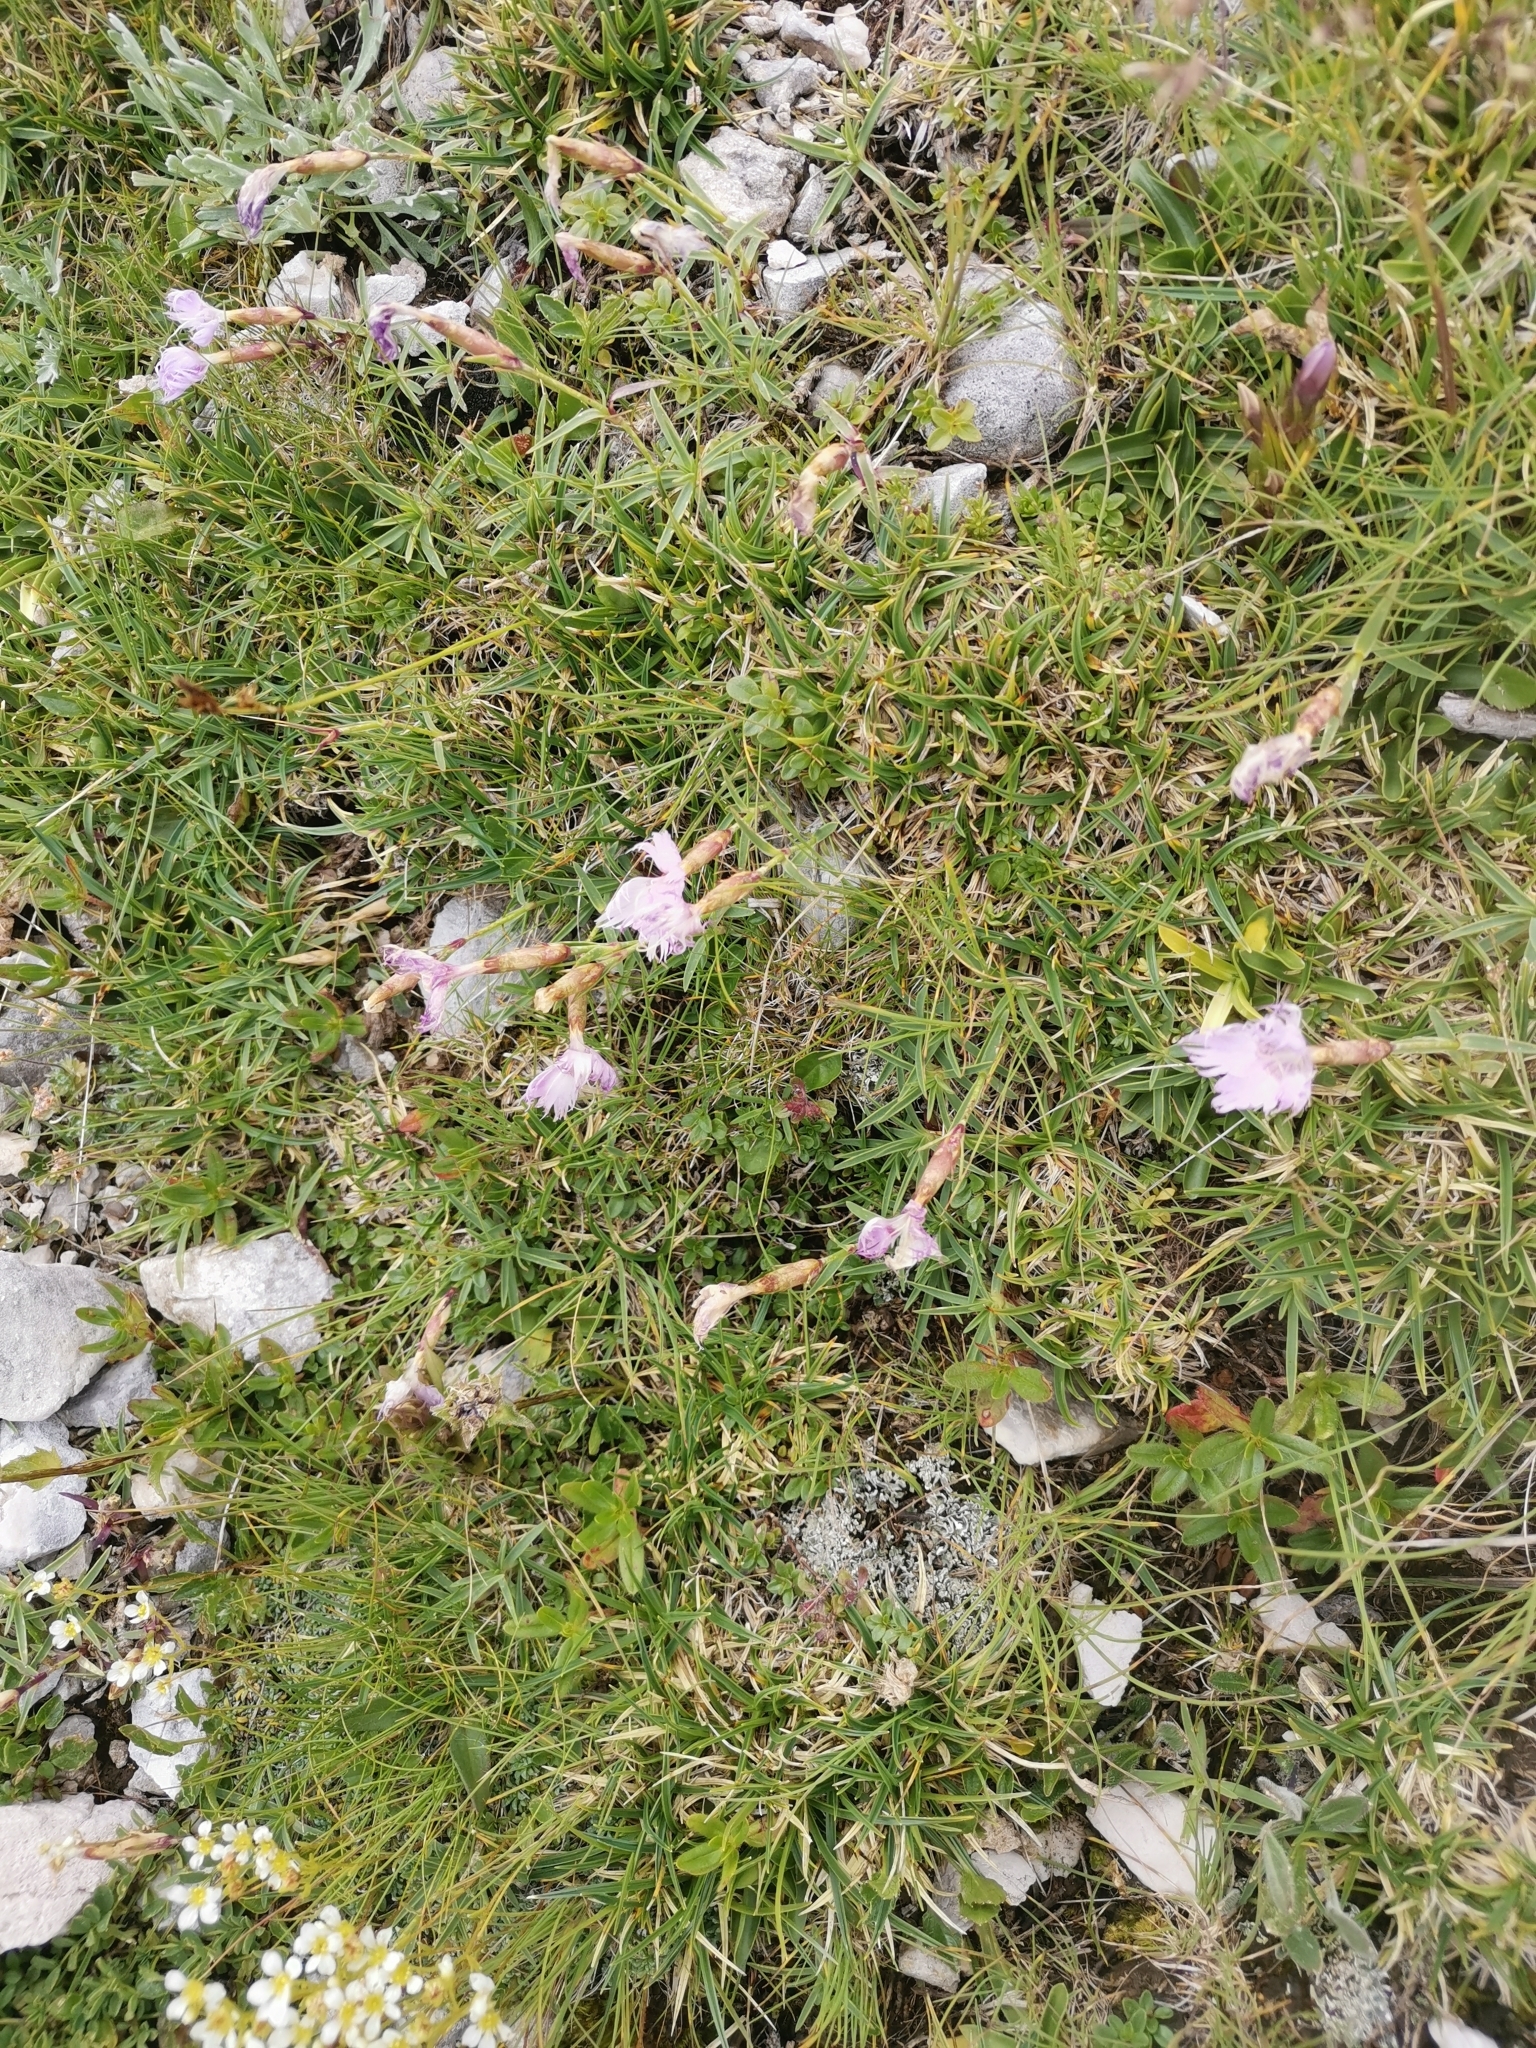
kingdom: Plantae
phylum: Tracheophyta
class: Magnoliopsida
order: Caryophyllales
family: Caryophyllaceae
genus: Dianthus
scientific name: Dianthus sternbergii
